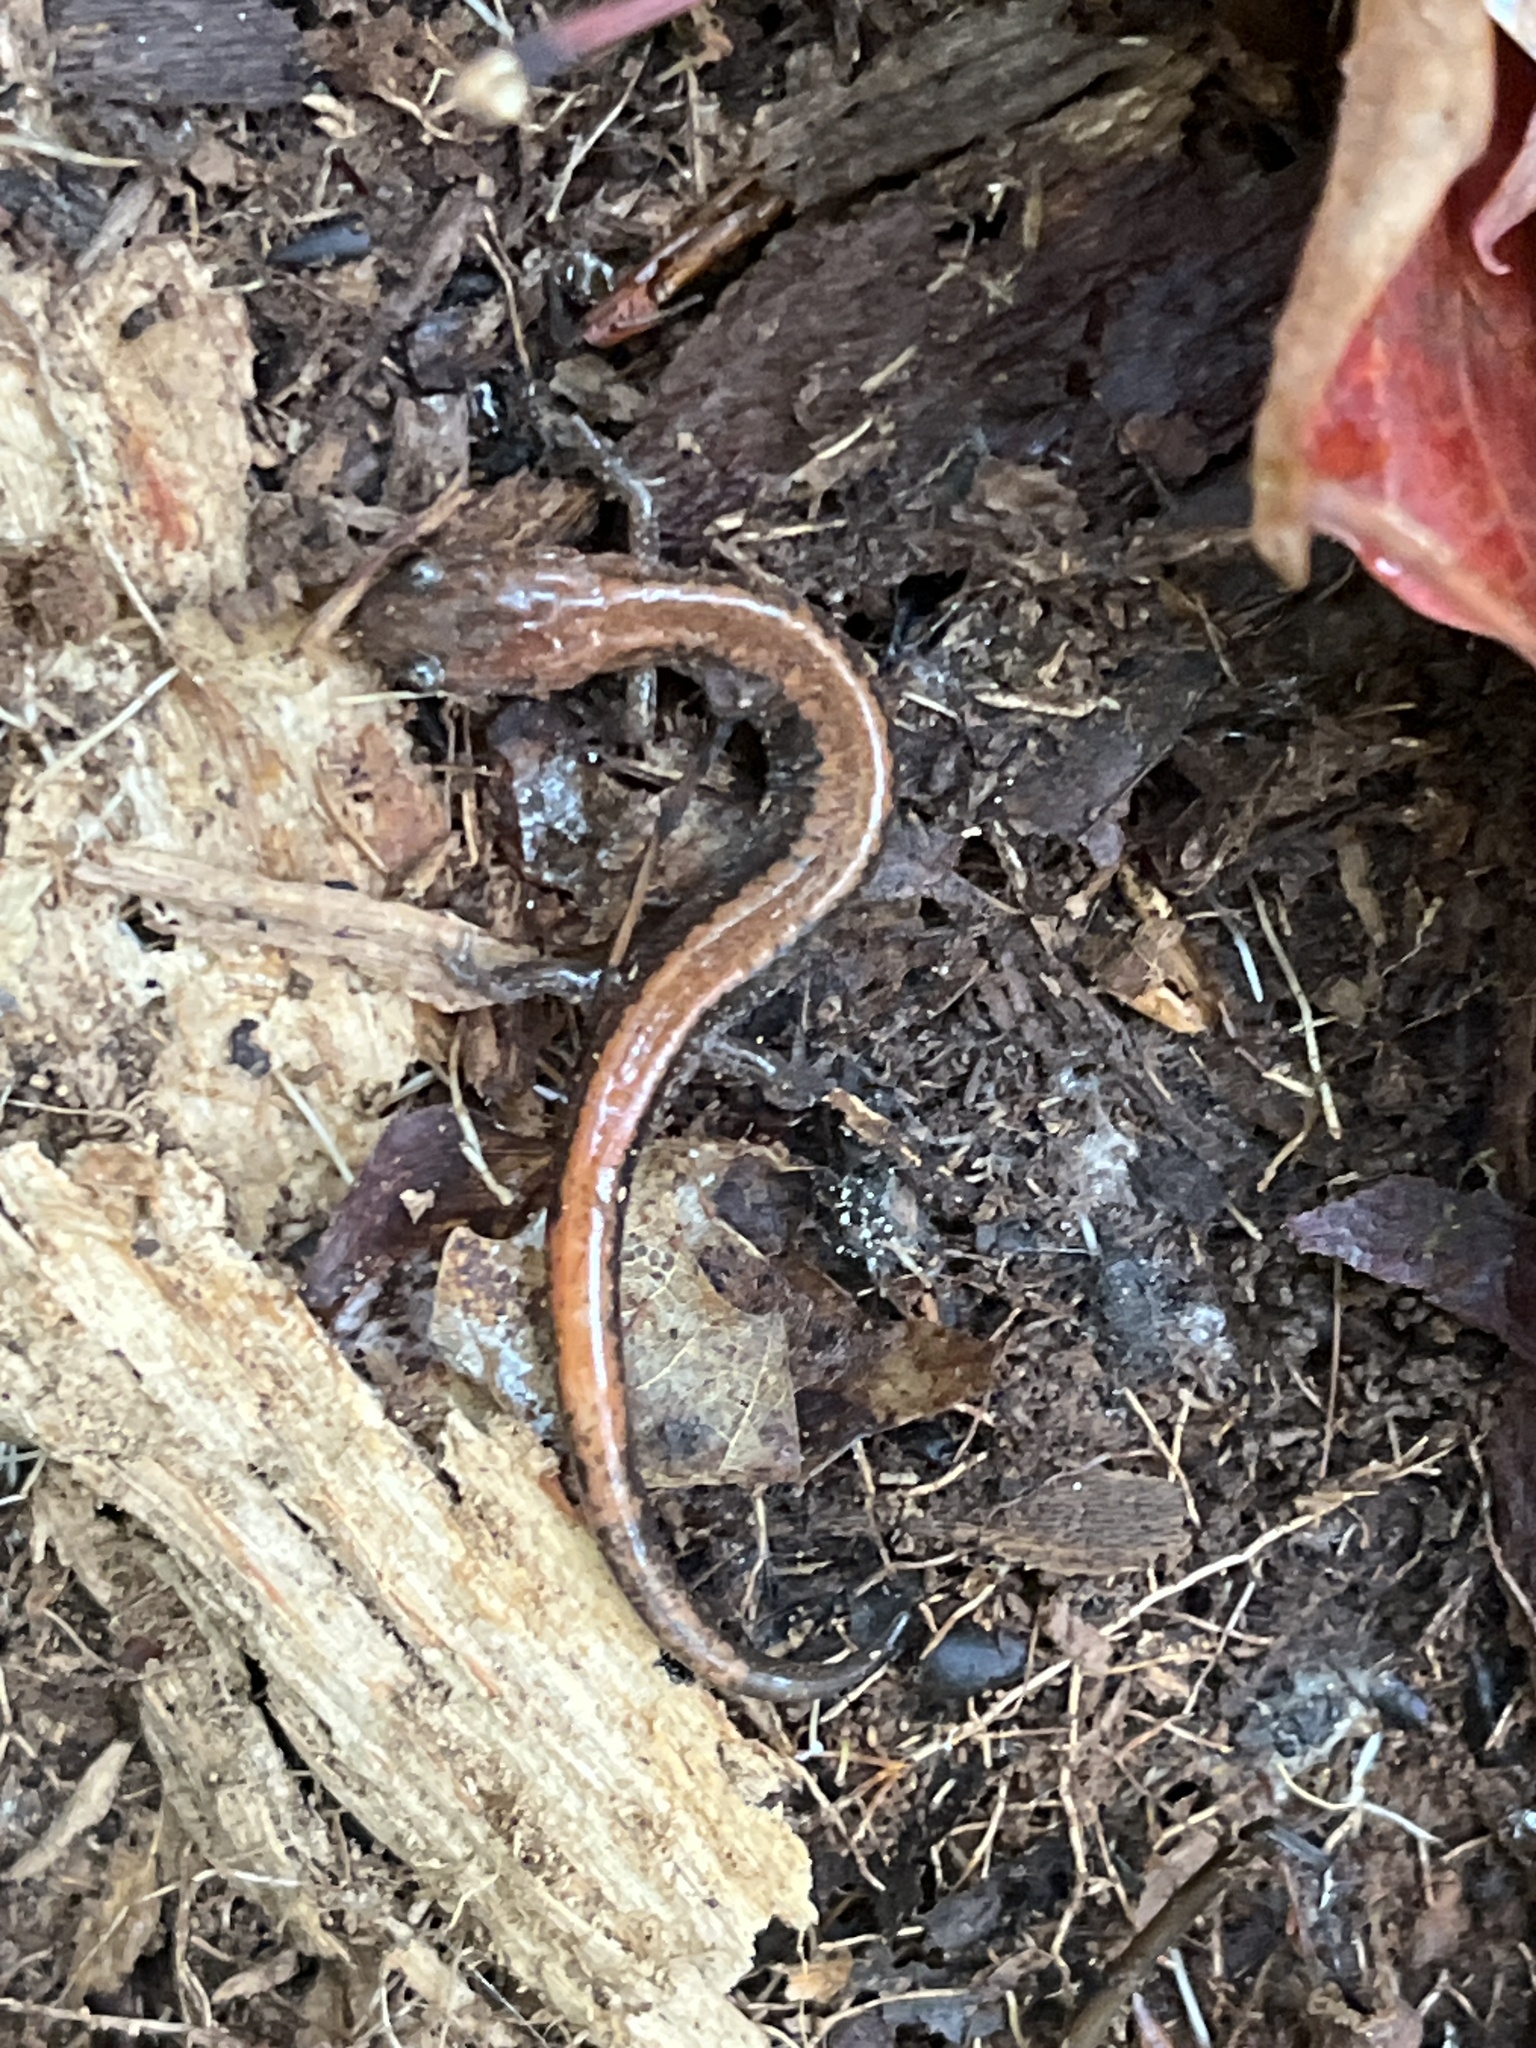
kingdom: Animalia
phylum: Chordata
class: Amphibia
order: Caudata
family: Plethodontidae
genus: Plethodon
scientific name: Plethodon cinereus
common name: Redback salamander
